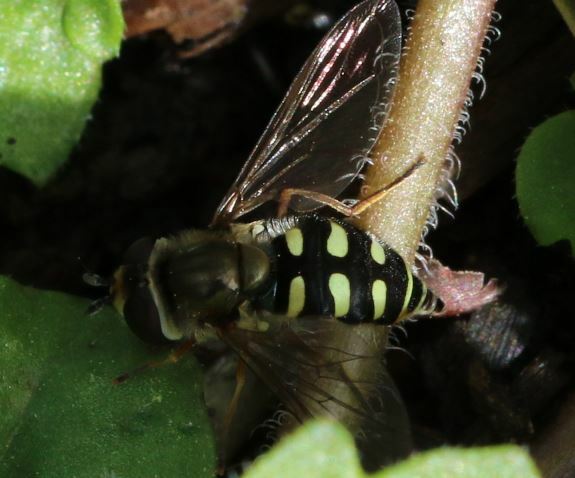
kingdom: Animalia
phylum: Arthropoda
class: Insecta
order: Diptera
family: Syrphidae
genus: Eupeodes
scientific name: Eupeodes corollae
